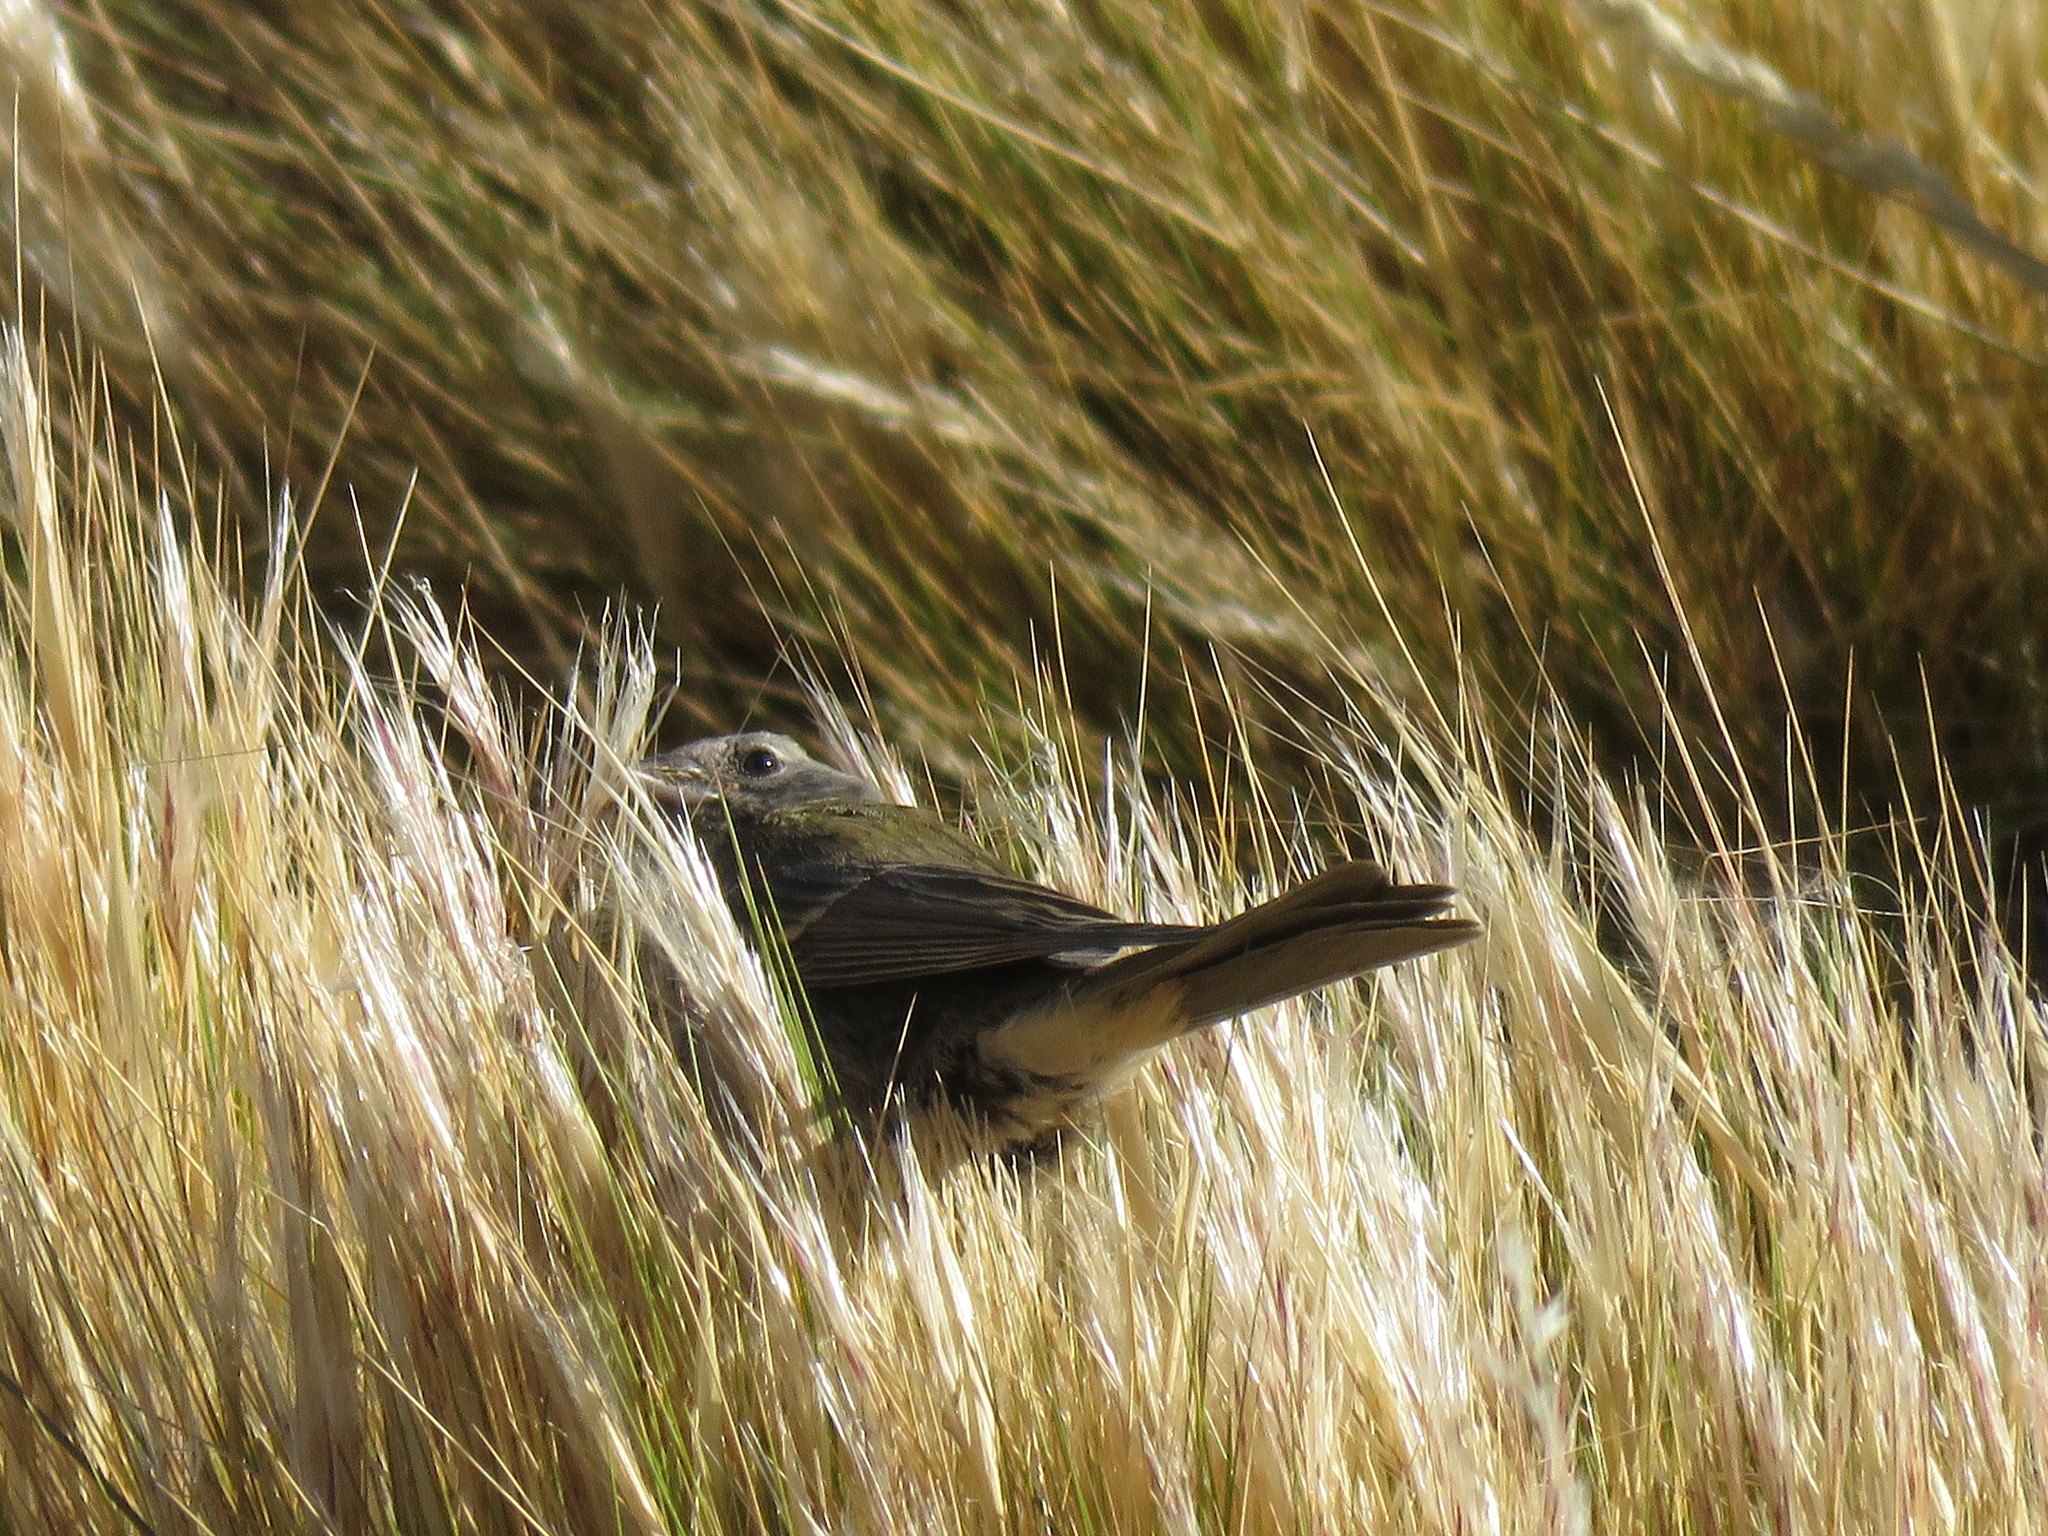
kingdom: Animalia
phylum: Chordata
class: Aves
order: Passeriformes
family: Thraupidae
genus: Phrygilus
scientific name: Phrygilus gayi
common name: Grey-hooded sierra finch
